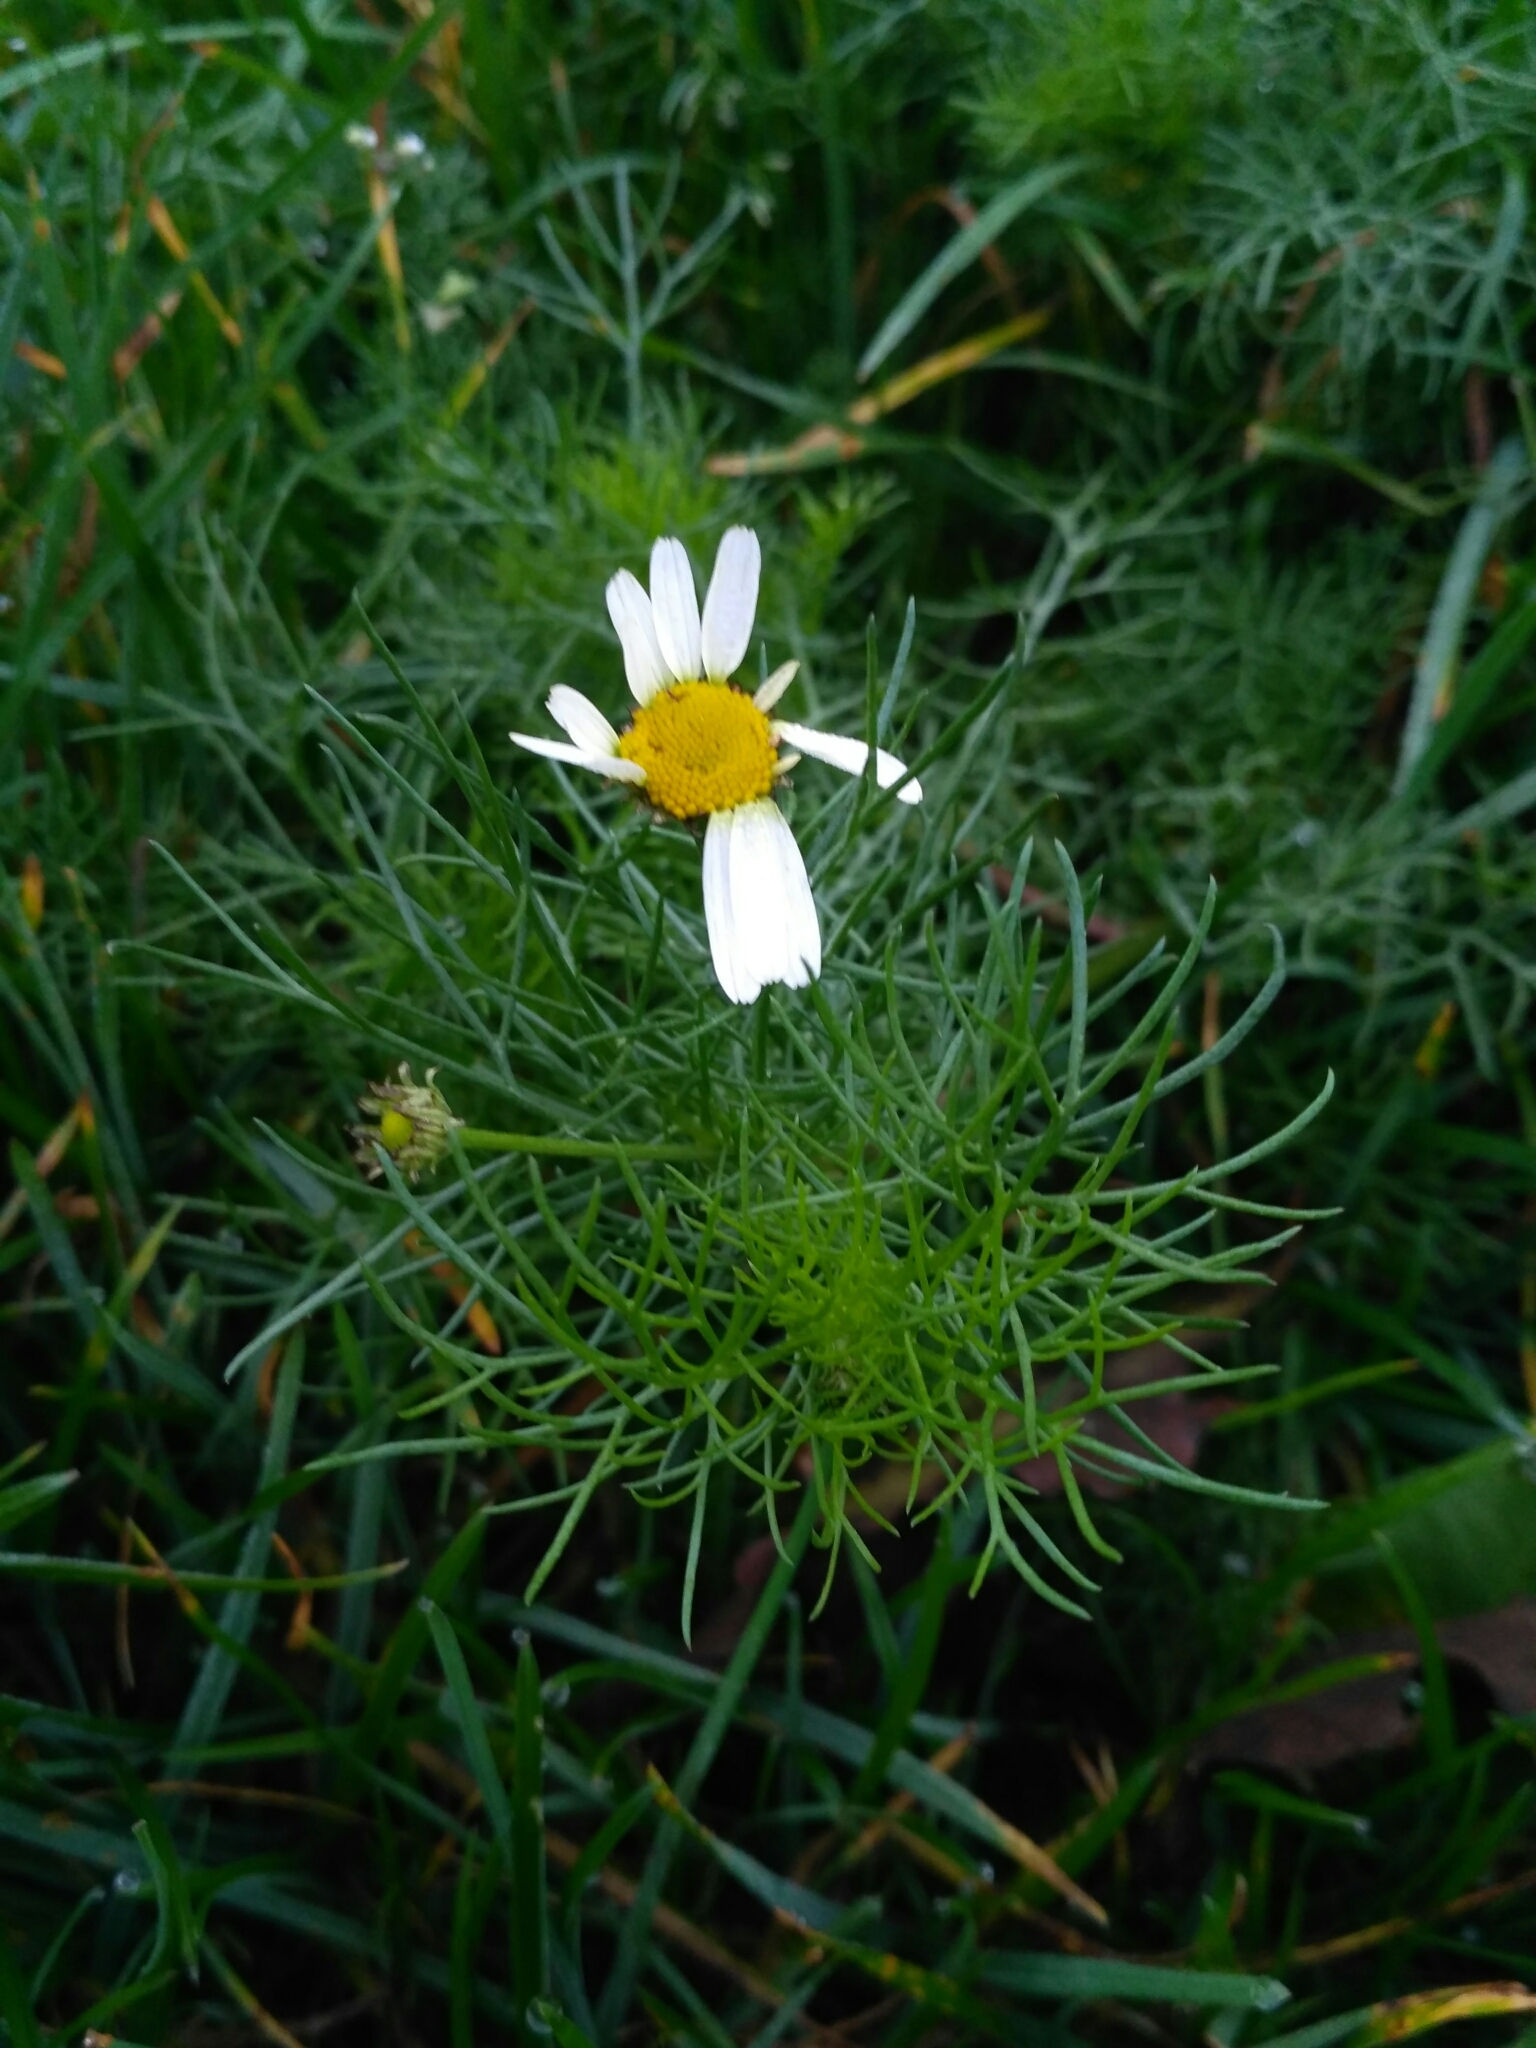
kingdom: Plantae
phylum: Tracheophyta
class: Magnoliopsida
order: Asterales
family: Asteraceae
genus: Tripleurospermum
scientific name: Tripleurospermum inodorum
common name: Scentless mayweed
